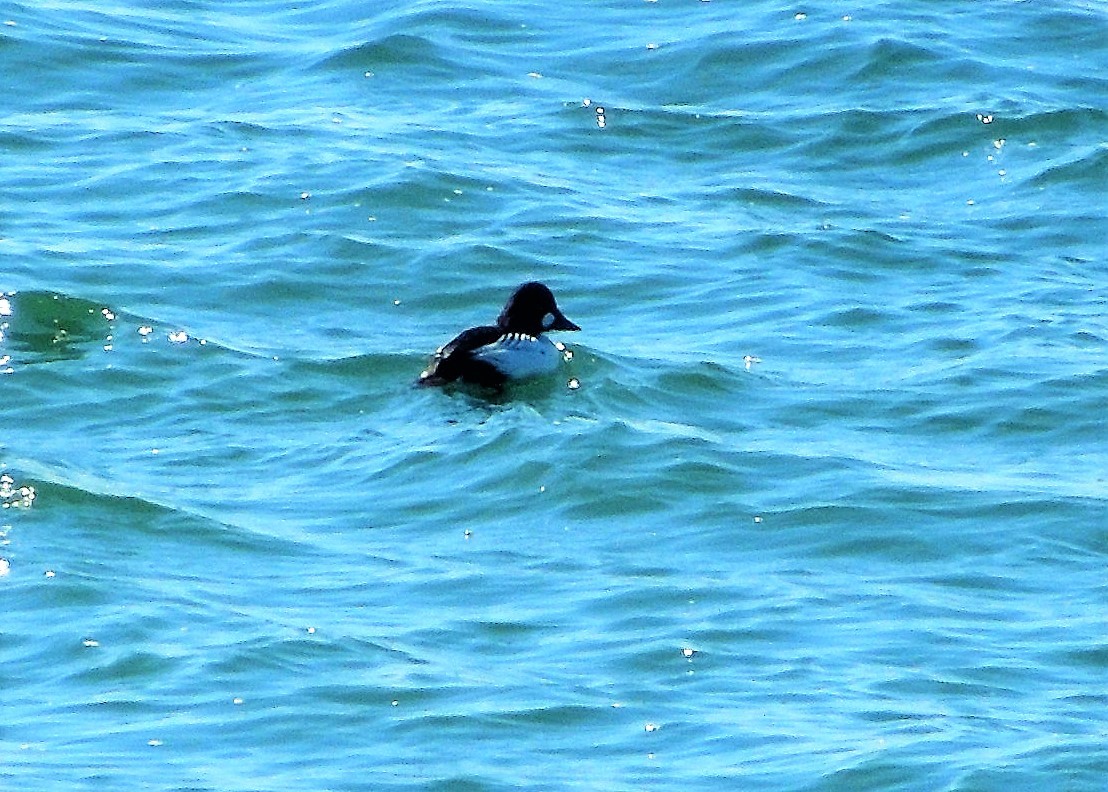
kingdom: Animalia
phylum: Chordata
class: Aves
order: Anseriformes
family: Anatidae
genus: Bucephala
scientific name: Bucephala clangula
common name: Common goldeneye
